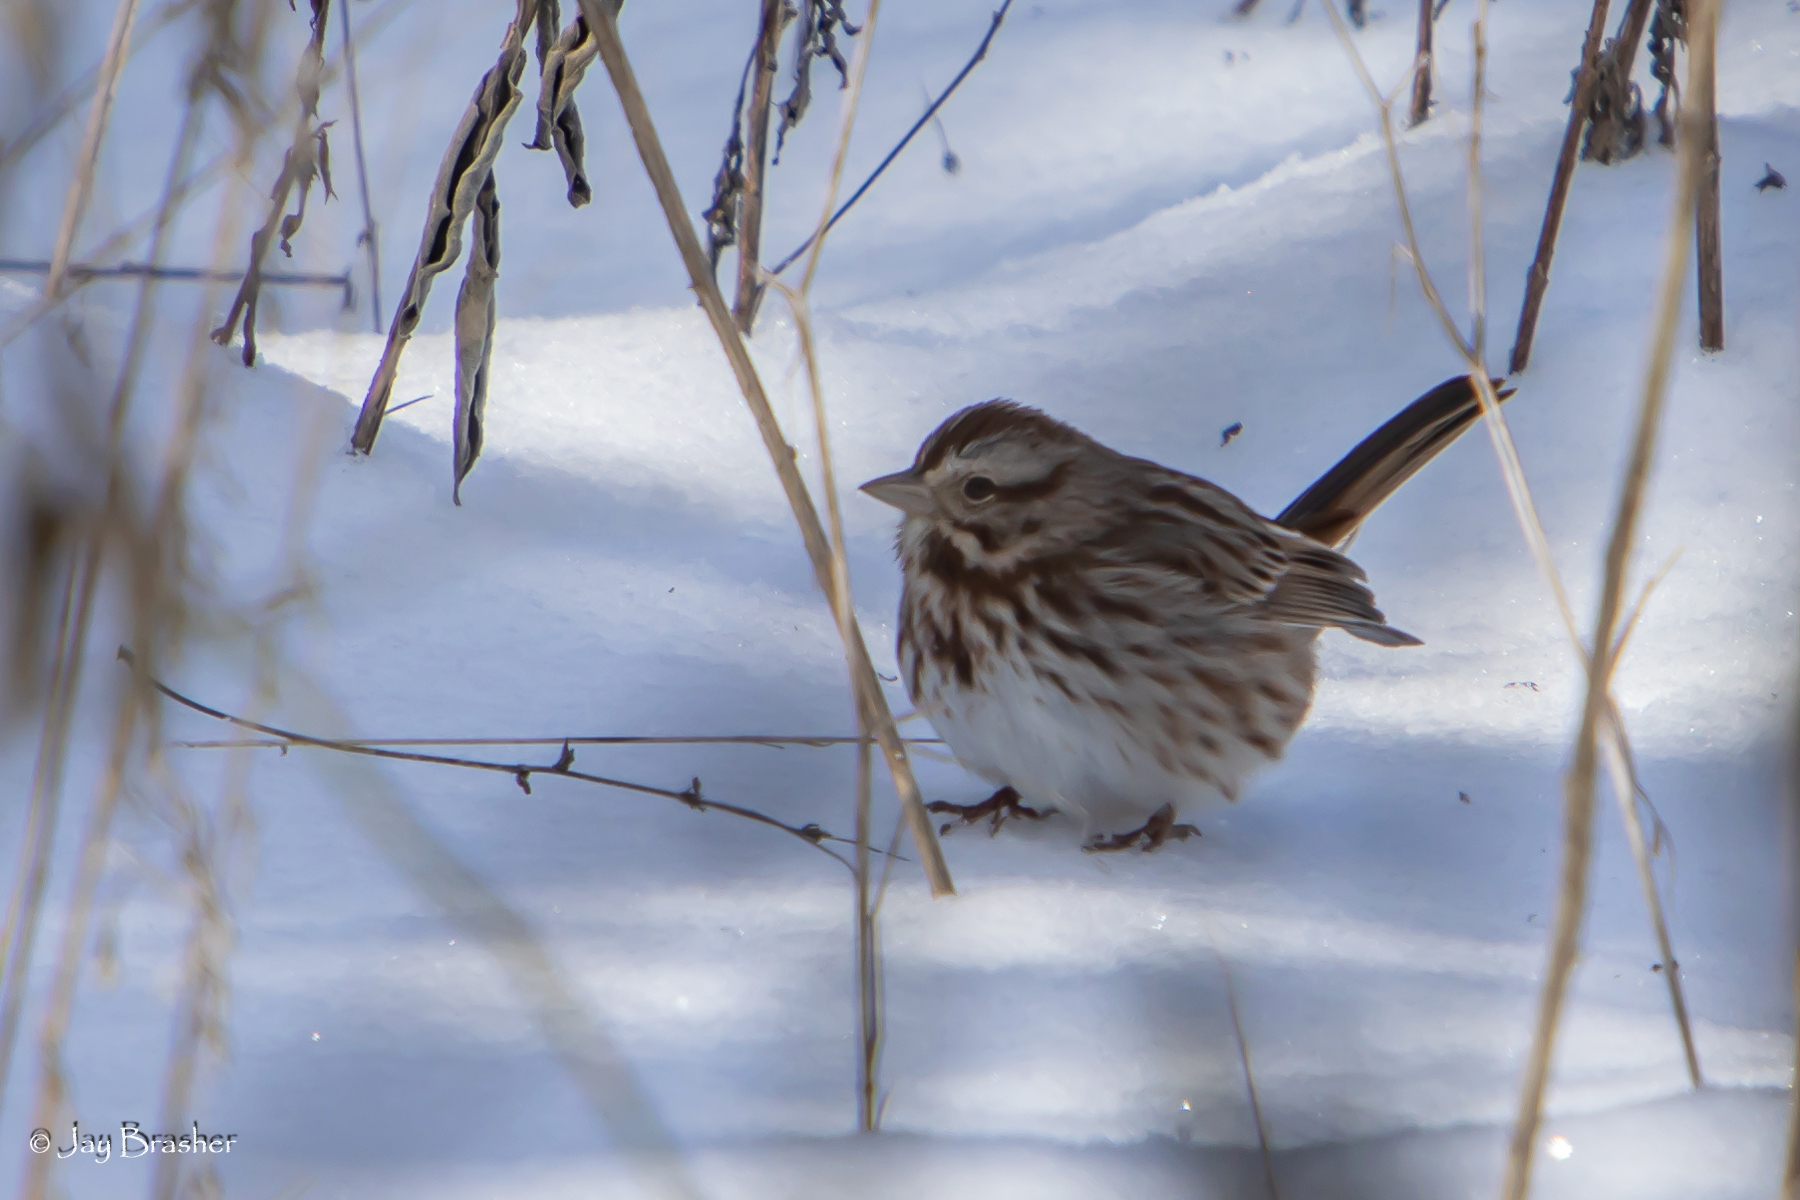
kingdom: Animalia
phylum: Chordata
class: Aves
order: Passeriformes
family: Passerellidae
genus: Melospiza
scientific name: Melospiza melodia
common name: Song sparrow
